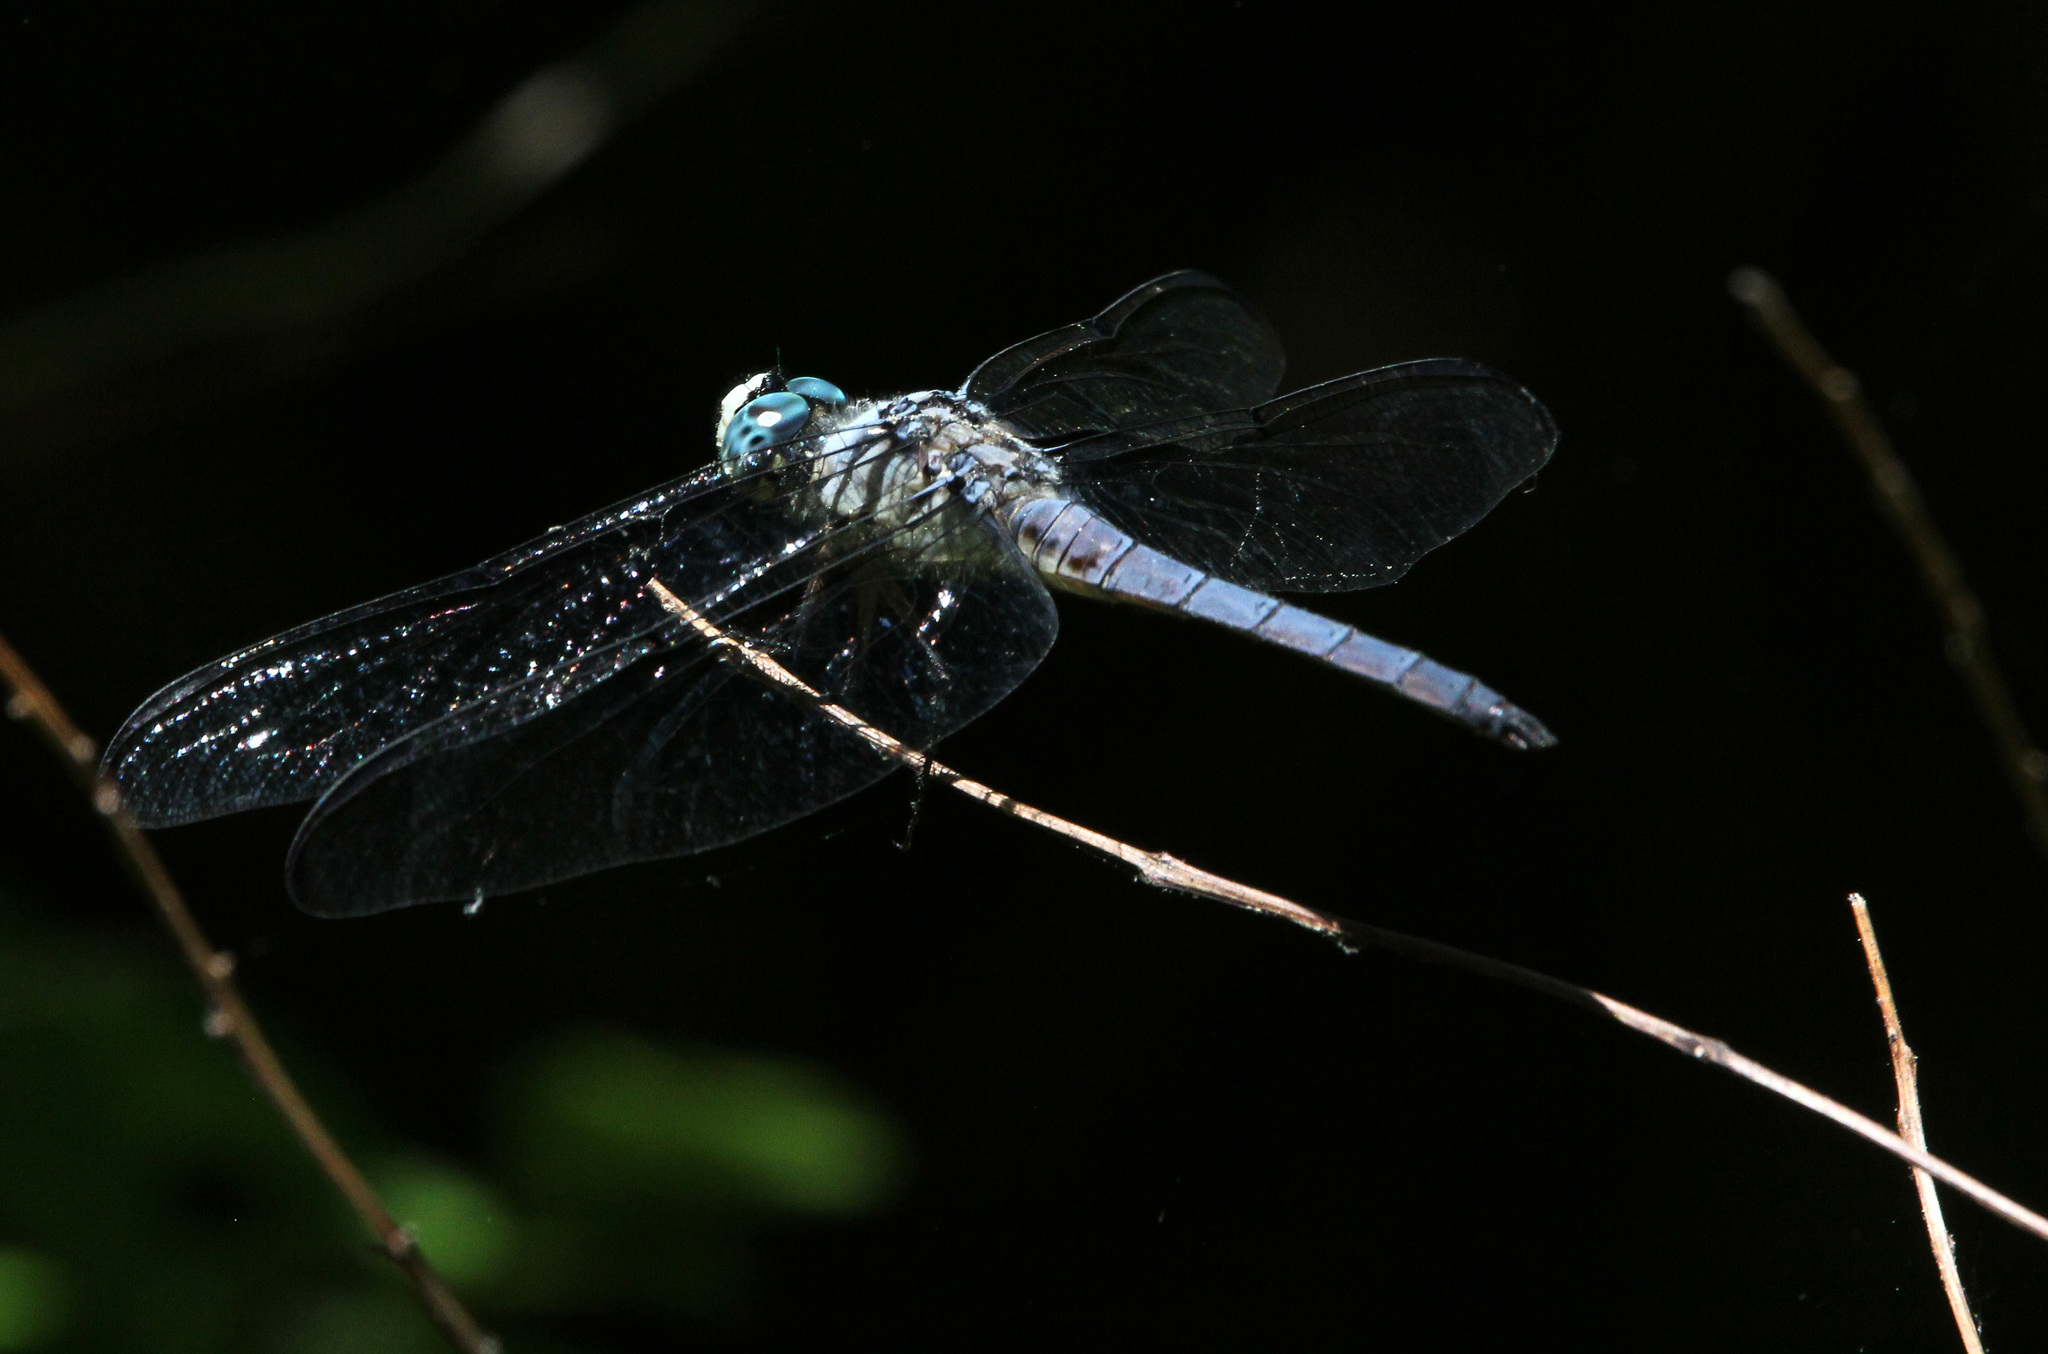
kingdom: Animalia
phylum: Arthropoda
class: Insecta
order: Odonata
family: Libellulidae
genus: Libellula
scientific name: Libellula vibrans
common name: Great blue skimmer
